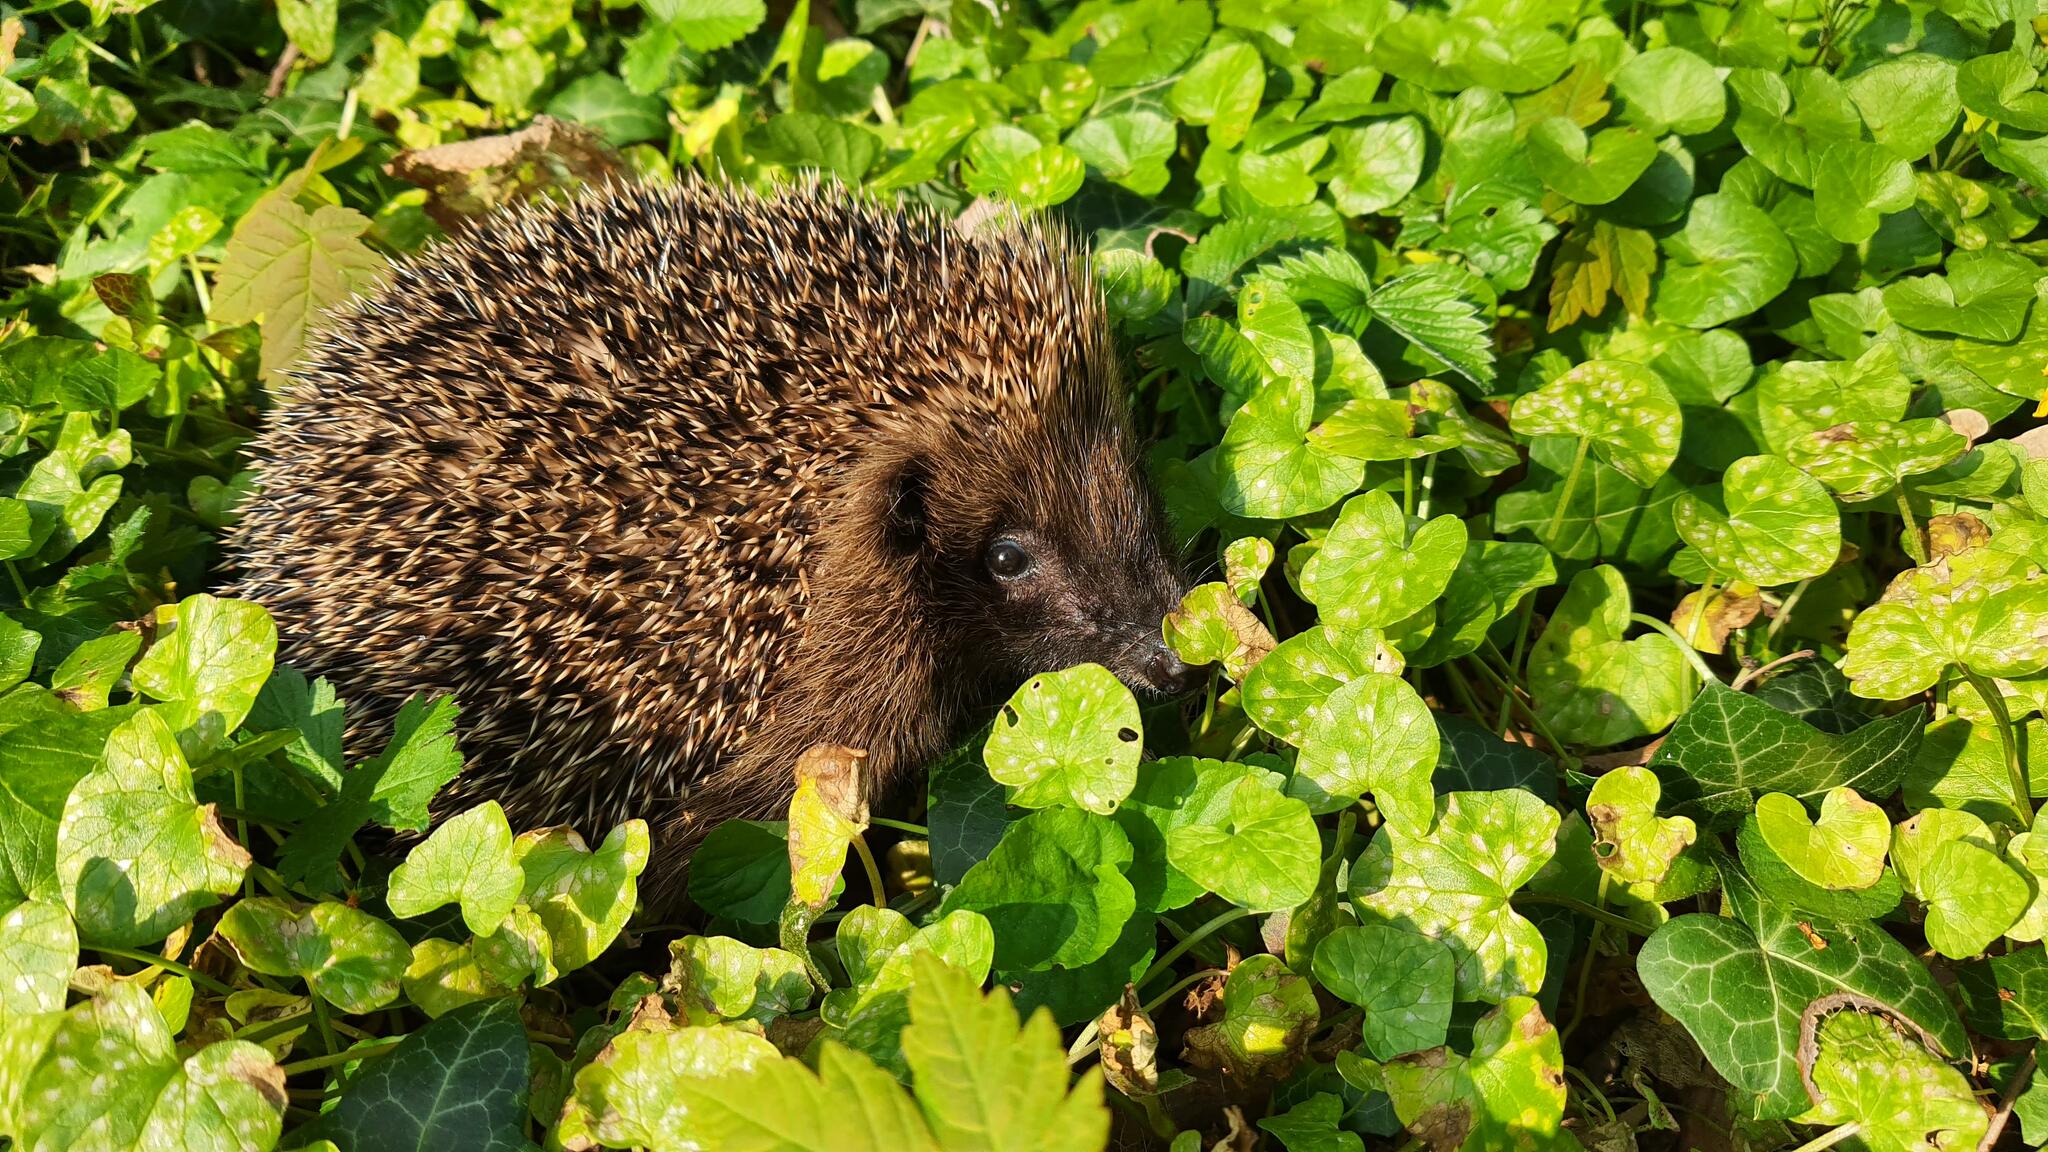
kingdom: Animalia
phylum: Chordata
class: Mammalia
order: Erinaceomorpha
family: Erinaceidae
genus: Erinaceus
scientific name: Erinaceus europaeus
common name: West european hedgehog
